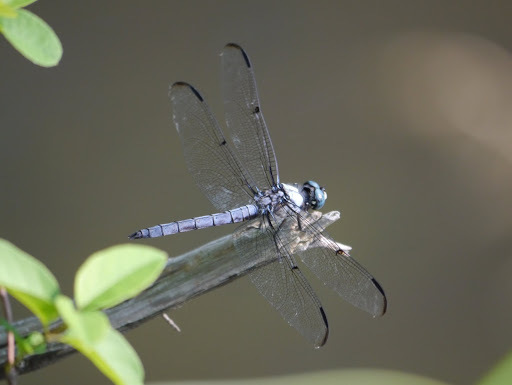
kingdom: Animalia
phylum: Arthropoda
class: Insecta
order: Odonata
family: Libellulidae
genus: Libellula
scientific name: Libellula vibrans
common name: Great blue skimmer
